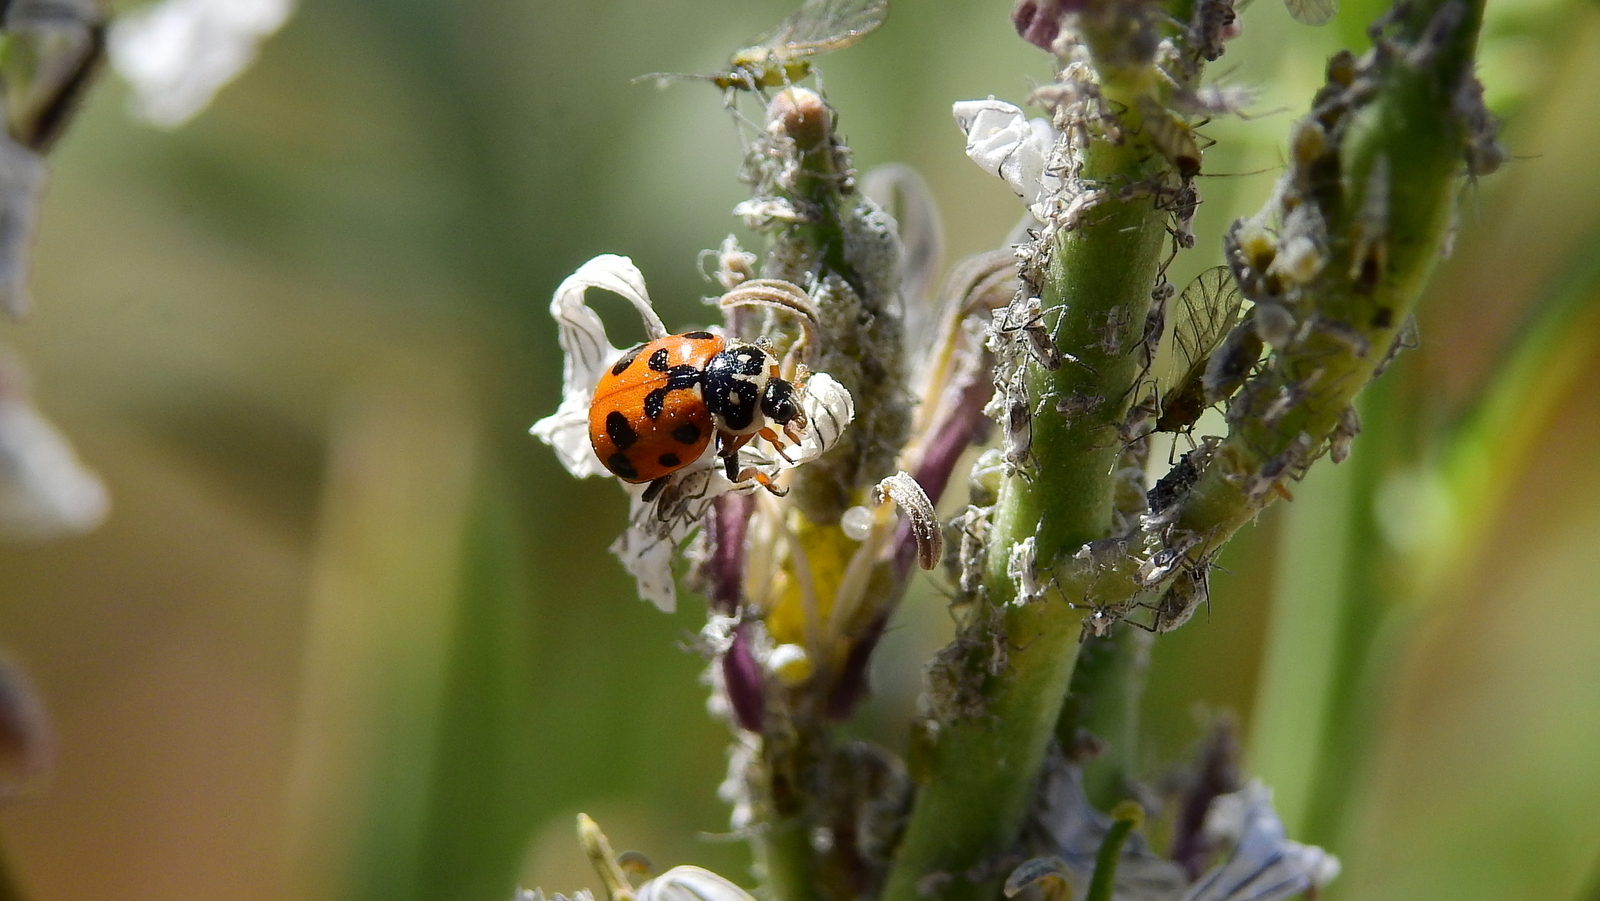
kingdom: Animalia
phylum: Arthropoda
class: Insecta
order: Coleoptera
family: Coccinellidae
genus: Hippodamia
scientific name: Hippodamia variegata
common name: Ladybird beetle
